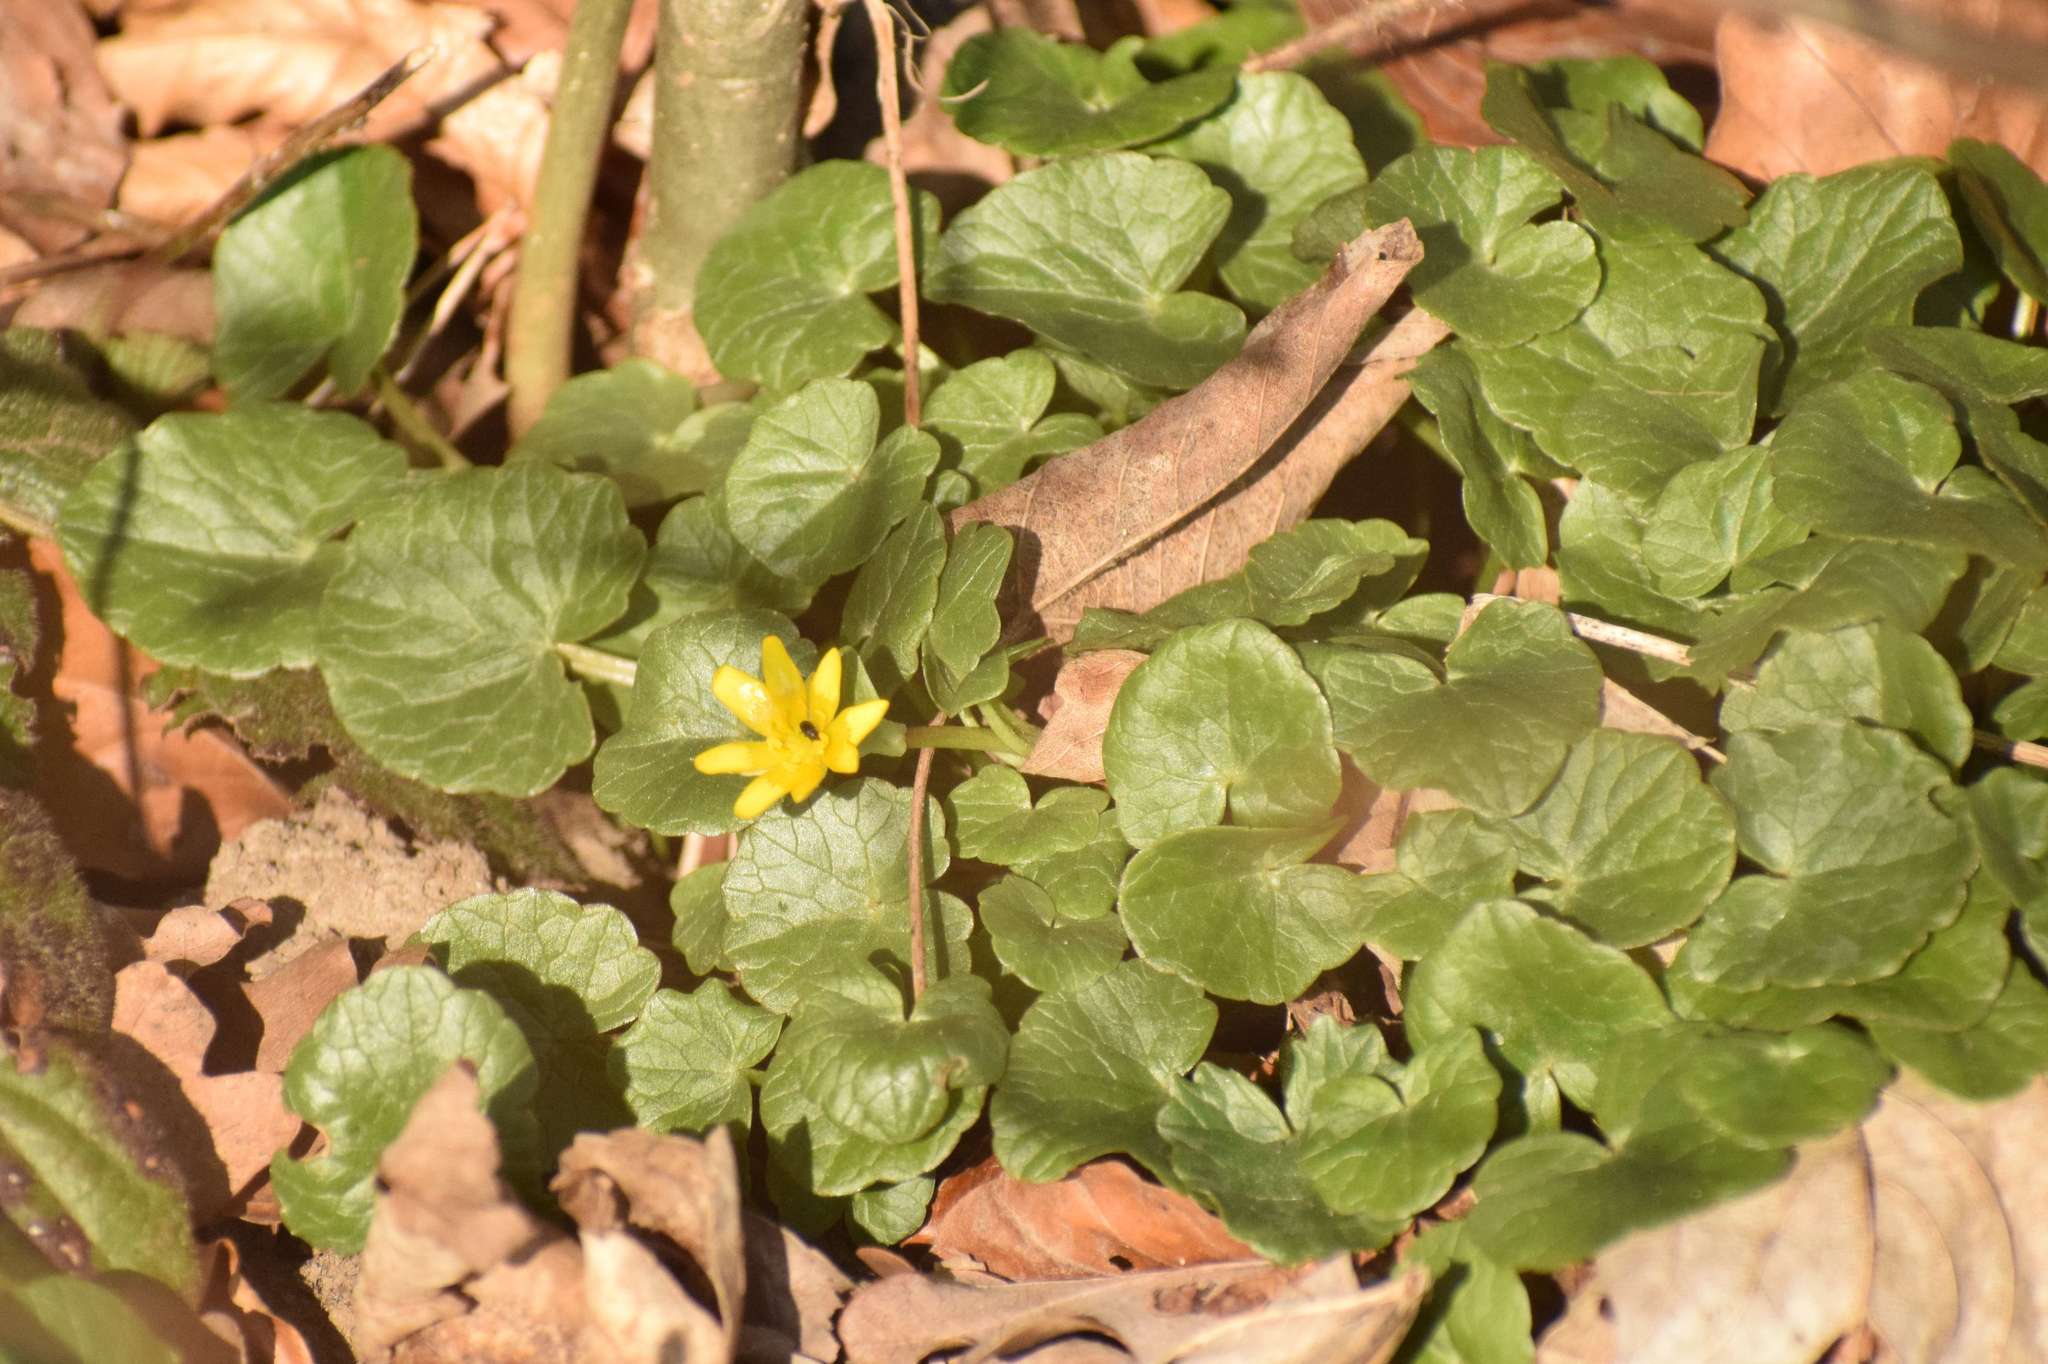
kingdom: Plantae
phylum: Tracheophyta
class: Magnoliopsida
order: Ranunculales
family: Ranunculaceae
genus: Ficaria
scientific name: Ficaria verna
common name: Lesser celandine
